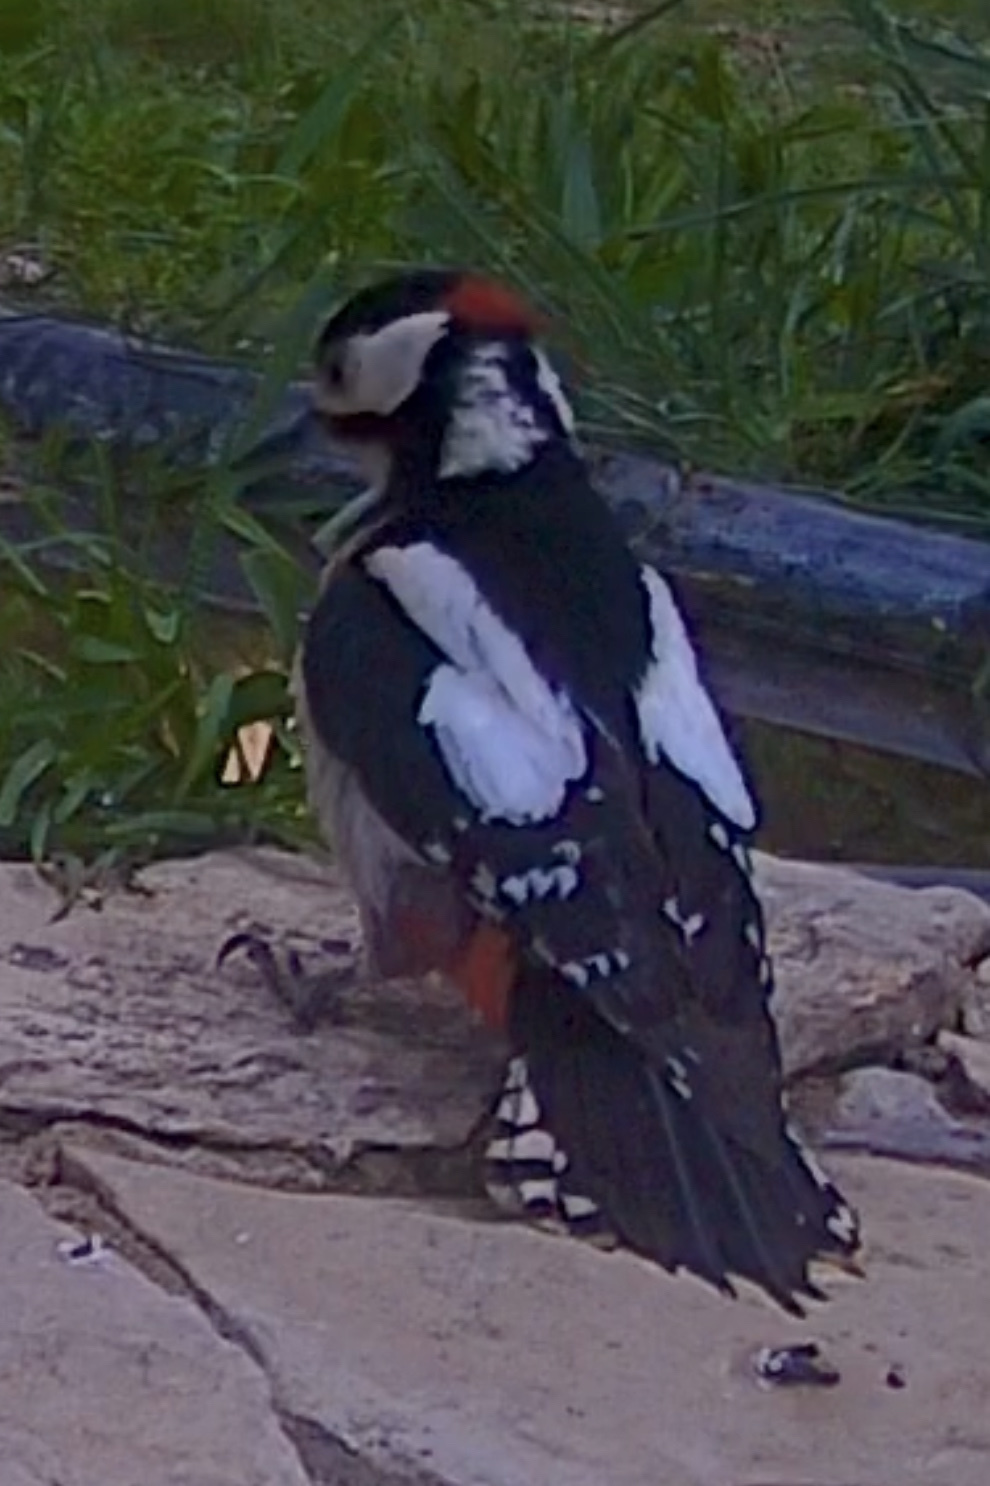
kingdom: Animalia
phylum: Chordata
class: Aves
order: Piciformes
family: Picidae
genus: Dendrocopos
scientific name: Dendrocopos major
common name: Great spotted woodpecker
